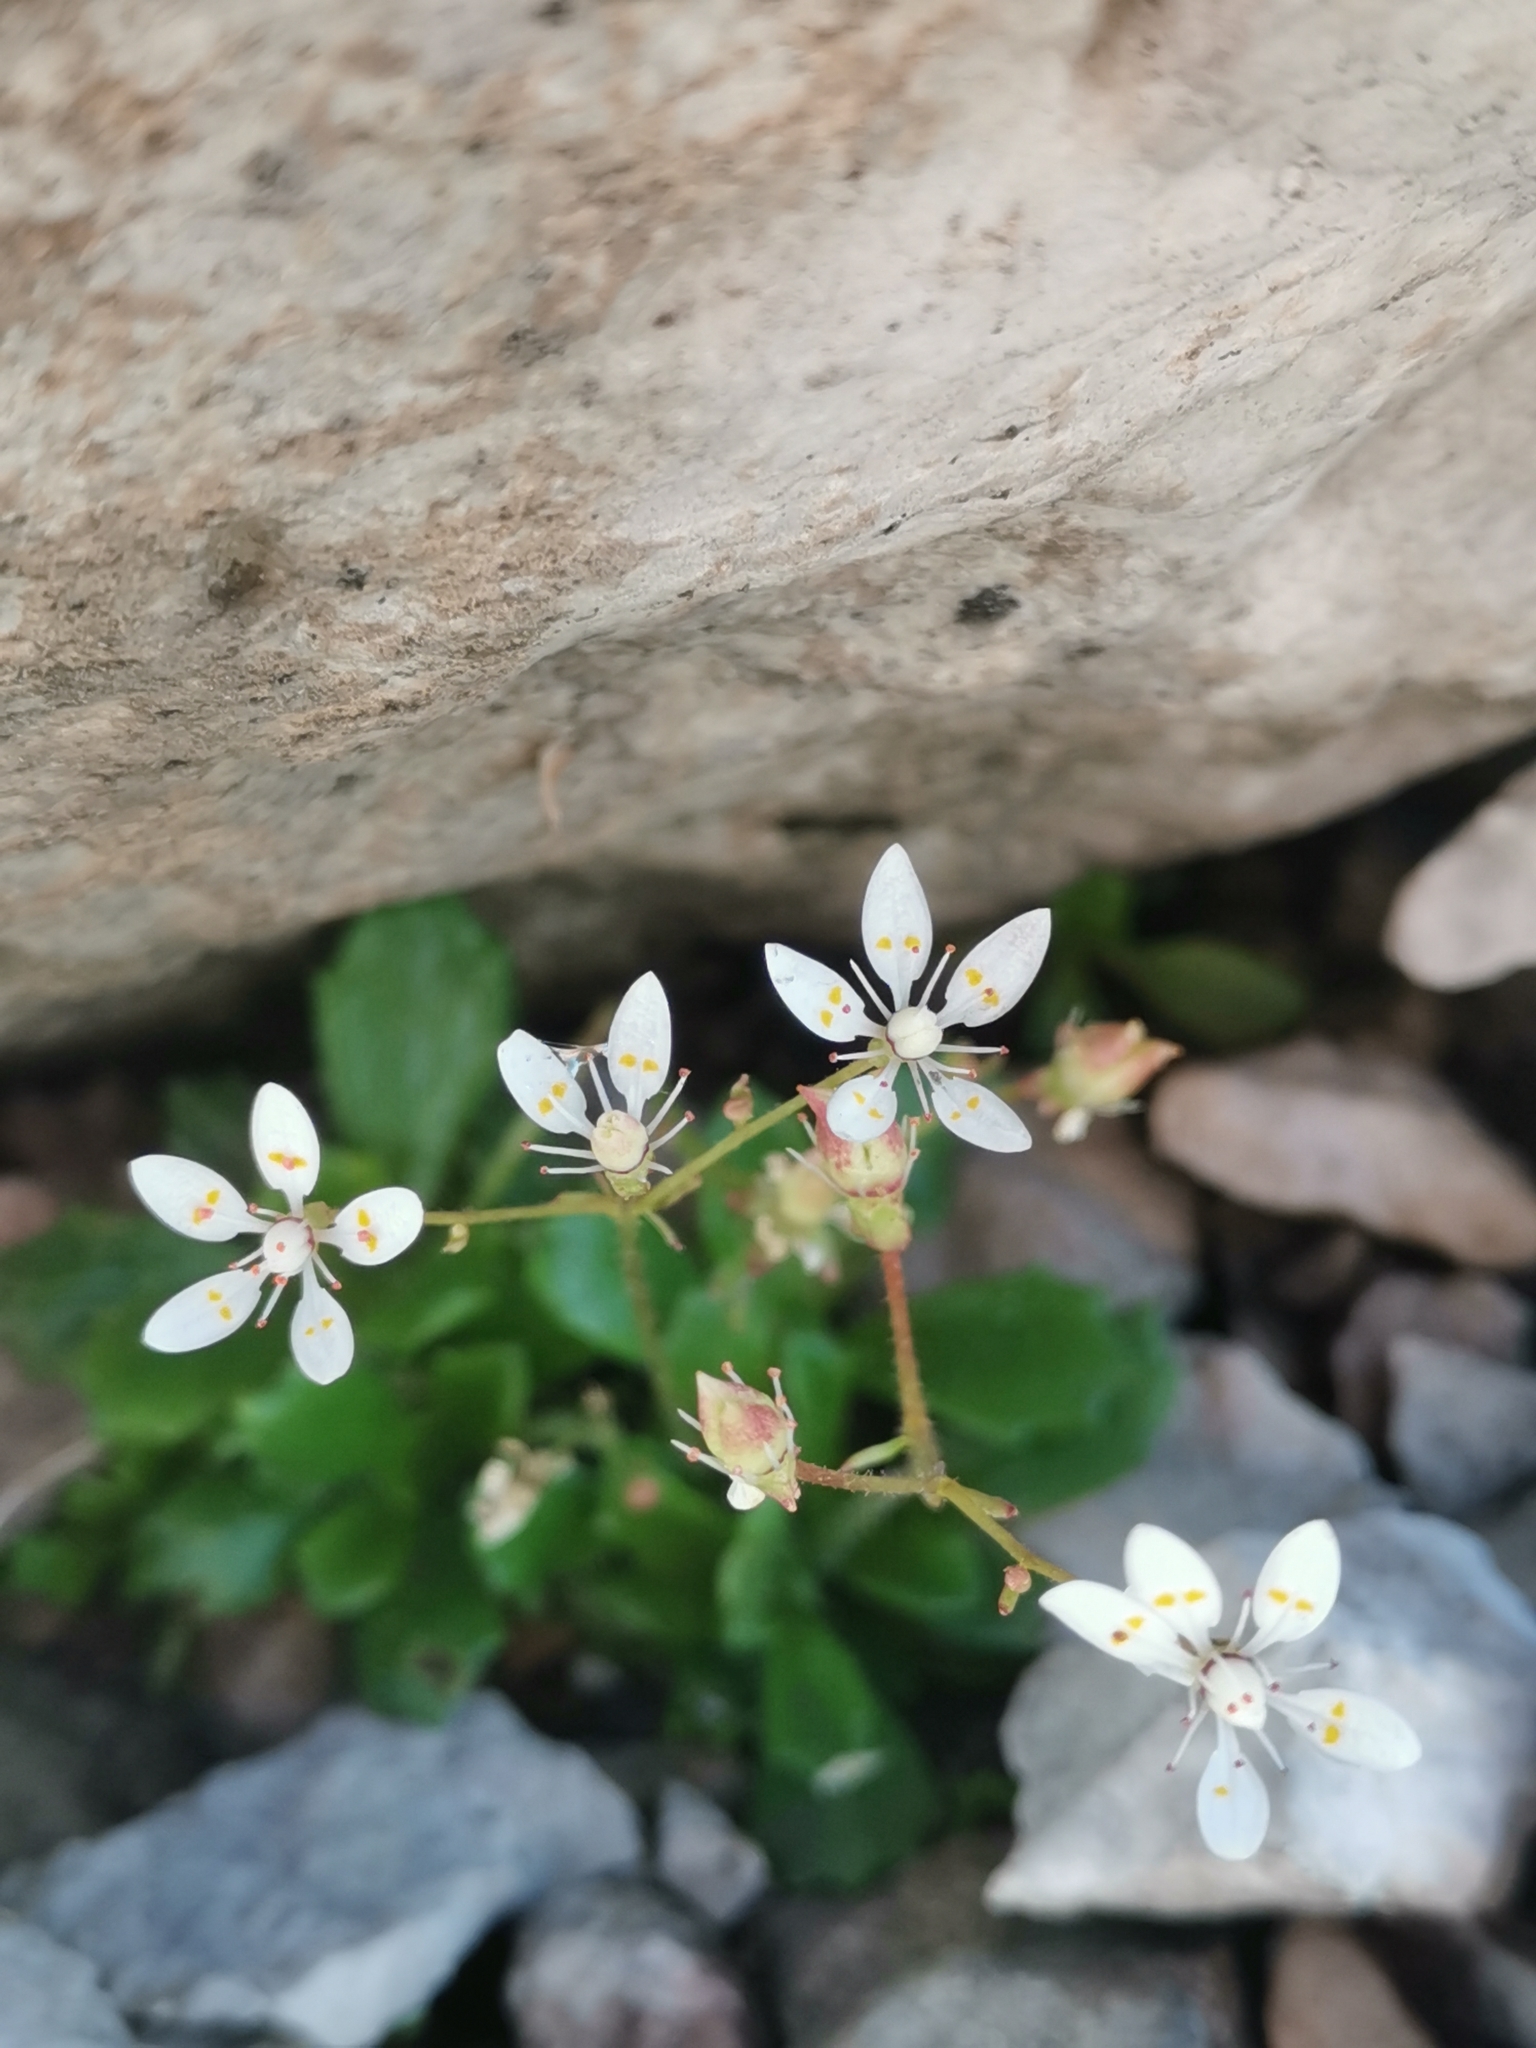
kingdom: Plantae
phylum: Tracheophyta
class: Magnoliopsida
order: Saxifragales
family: Saxifragaceae
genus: Micranthes
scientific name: Micranthes stellaris
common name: Starry saxifrage
